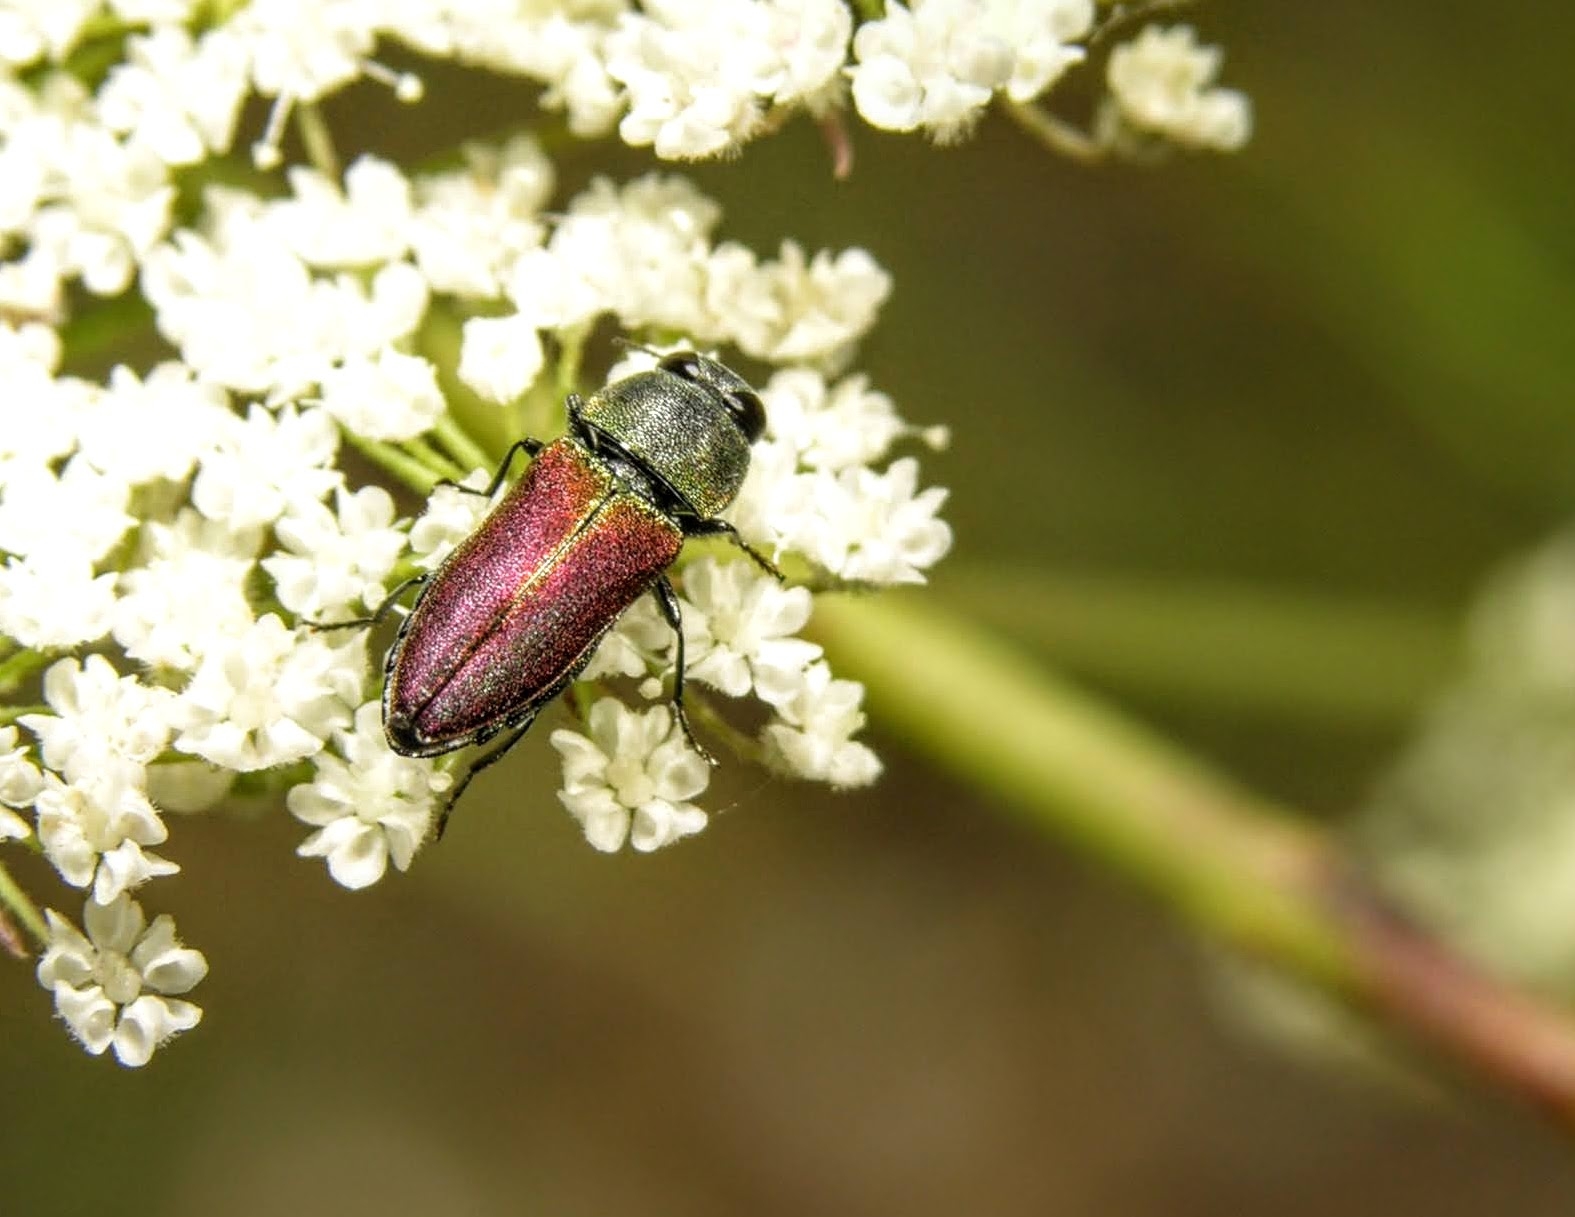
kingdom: Animalia
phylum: Arthropoda
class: Insecta
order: Coleoptera
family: Buprestidae
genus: Anthaxia
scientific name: Anthaxia cichorii
